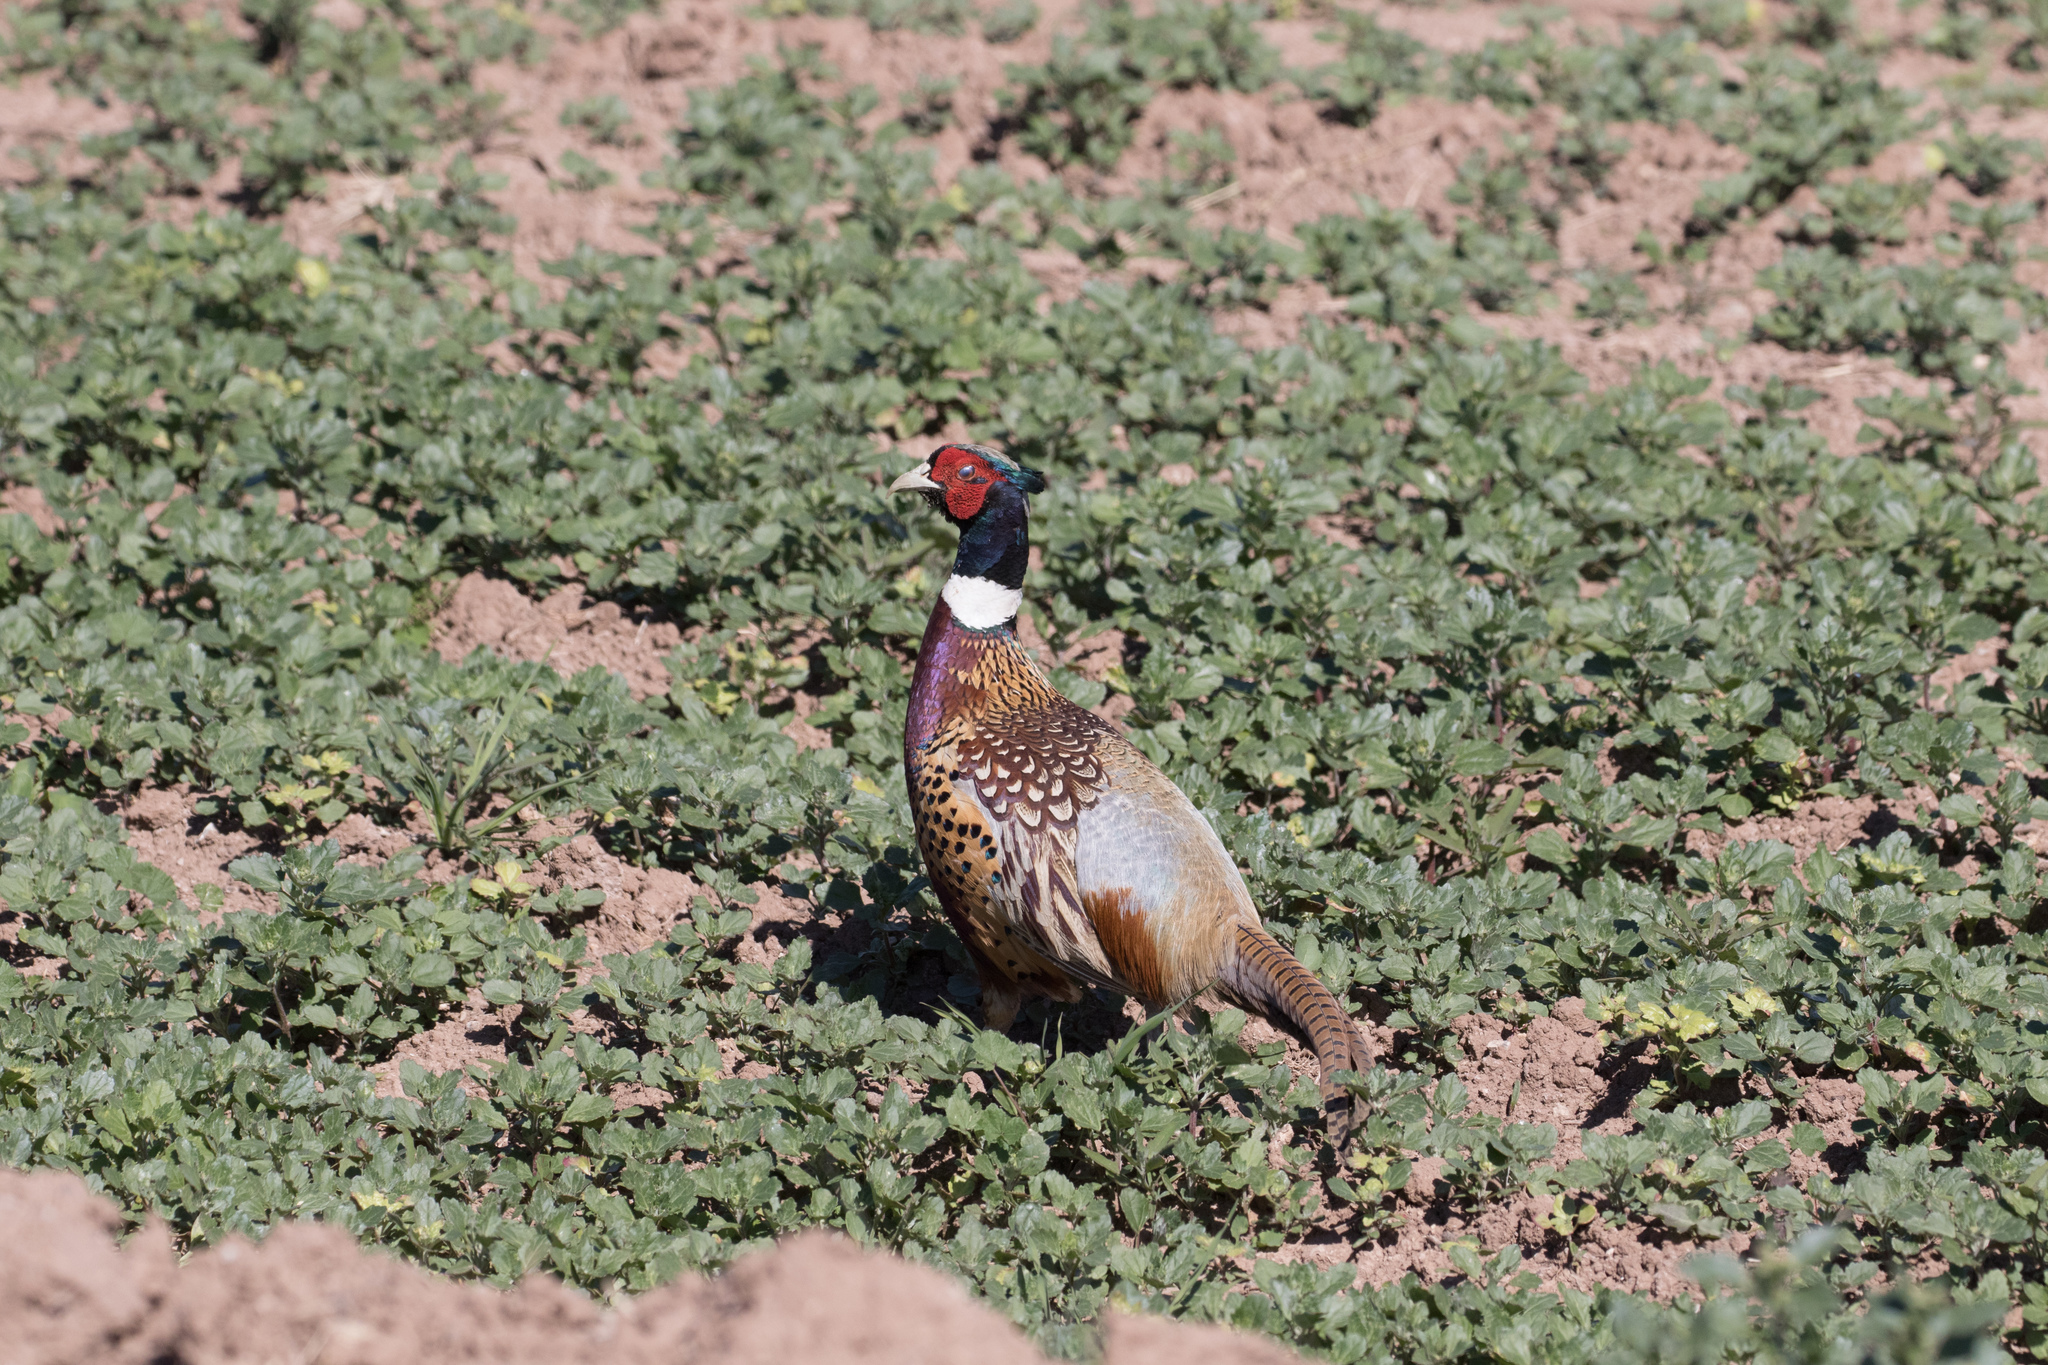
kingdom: Animalia
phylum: Chordata
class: Aves
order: Galliformes
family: Phasianidae
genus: Phasianus
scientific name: Phasianus colchicus
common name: Common pheasant
